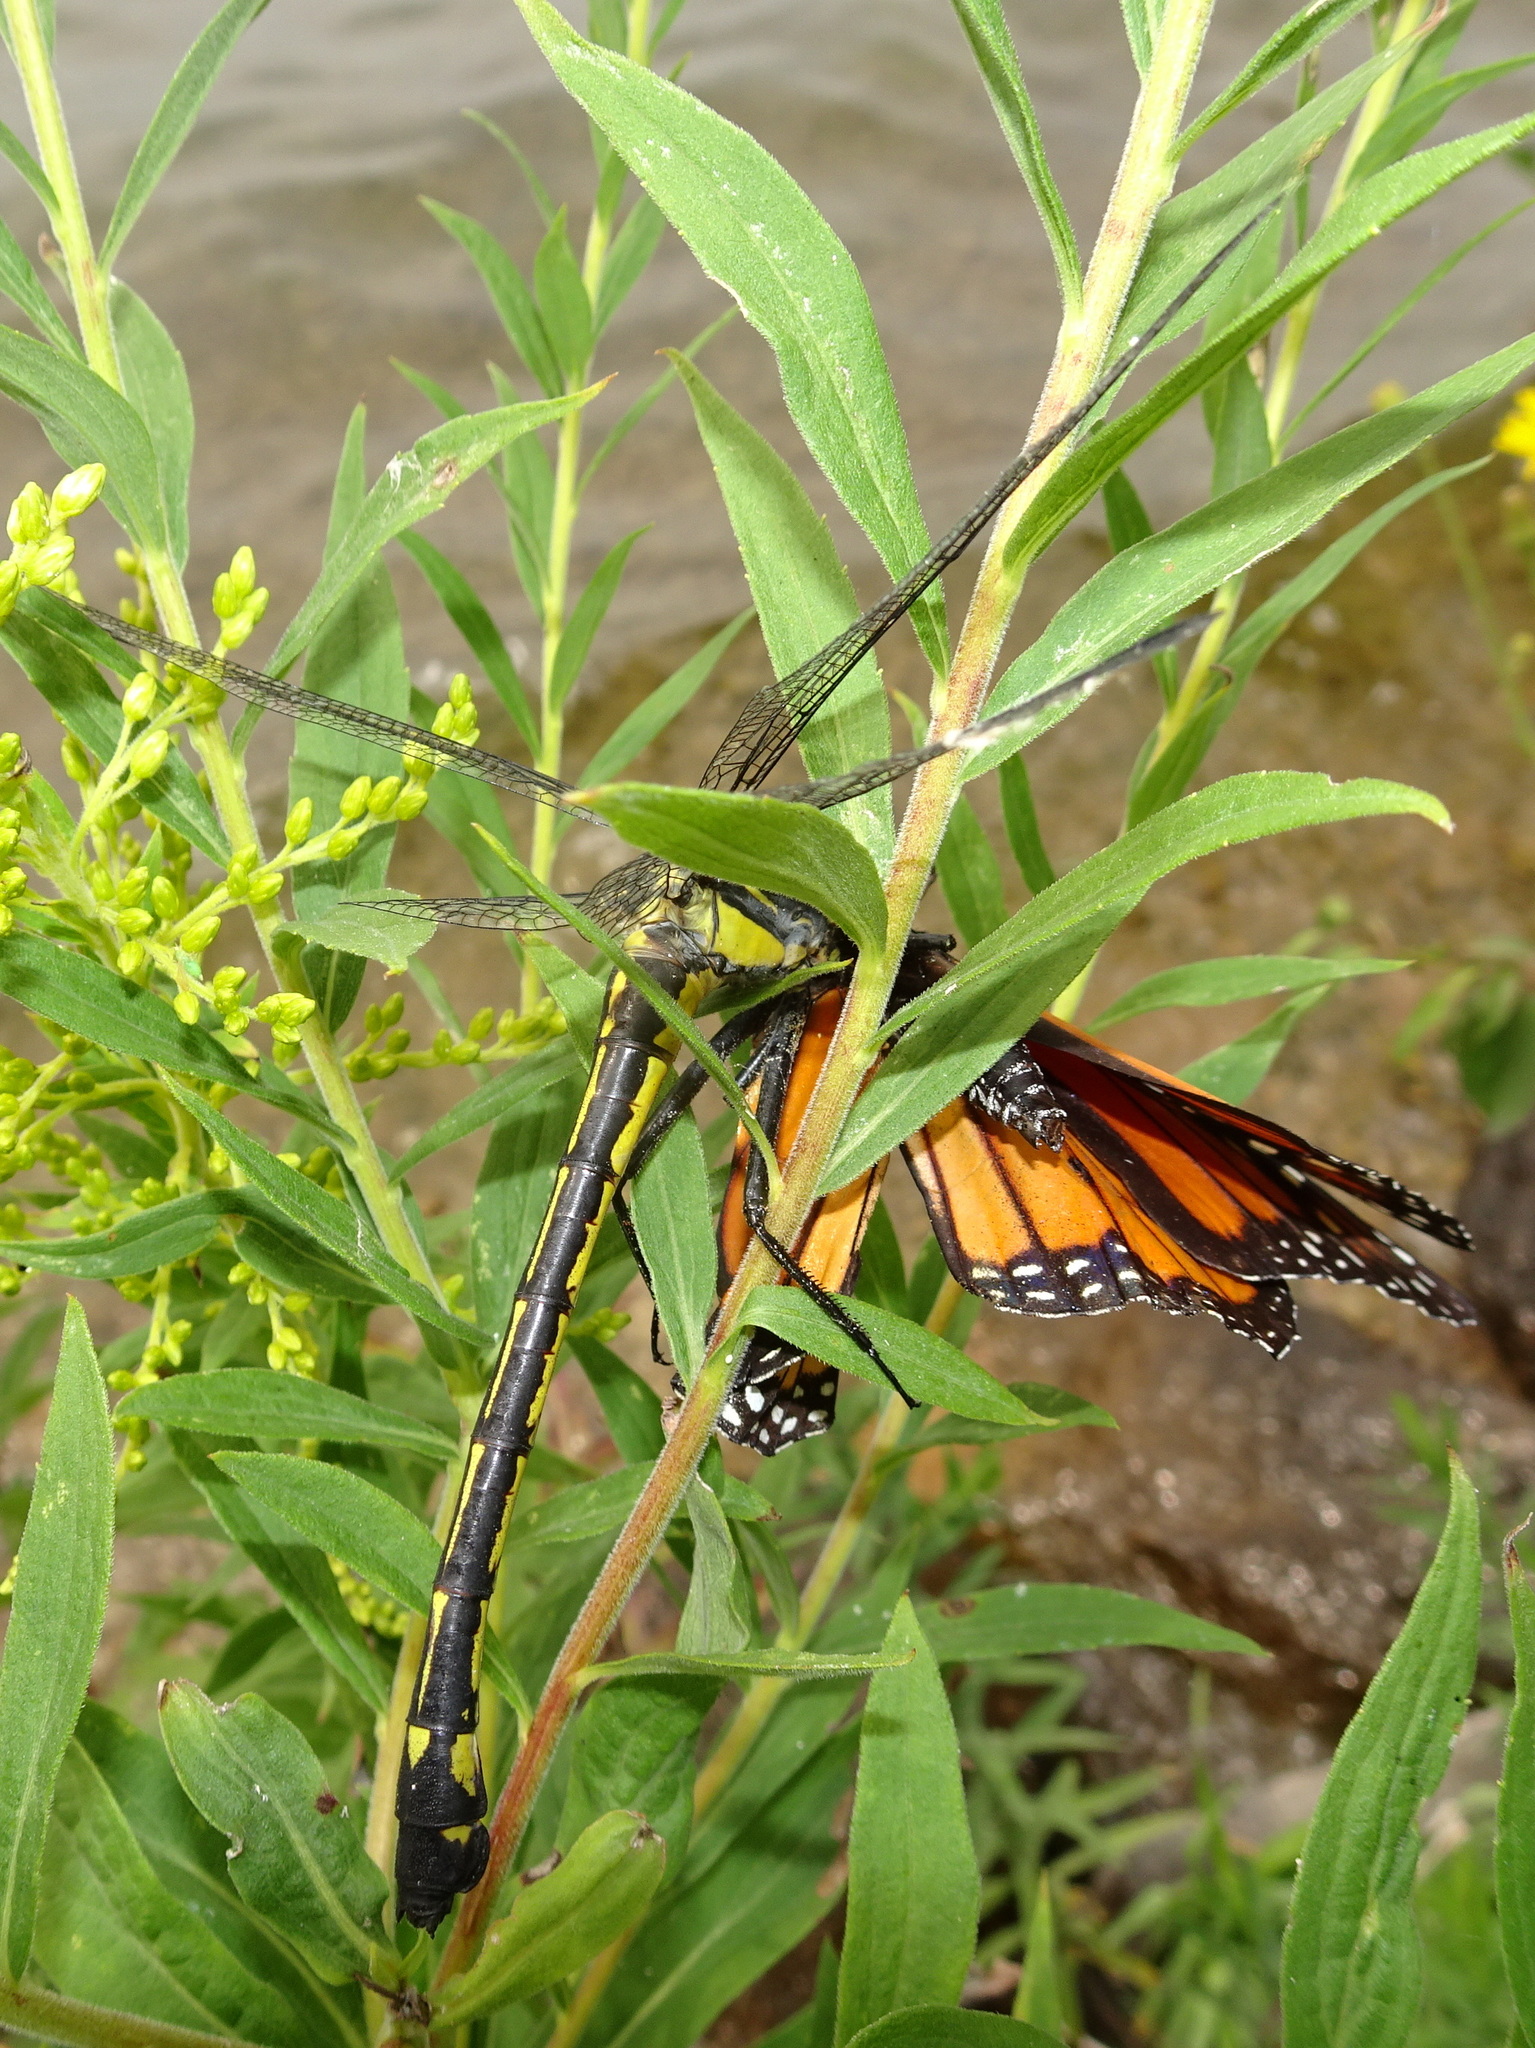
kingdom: Animalia
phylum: Arthropoda
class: Insecta
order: Lepidoptera
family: Nymphalidae
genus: Danaus
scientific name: Danaus plexippus
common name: Monarch
